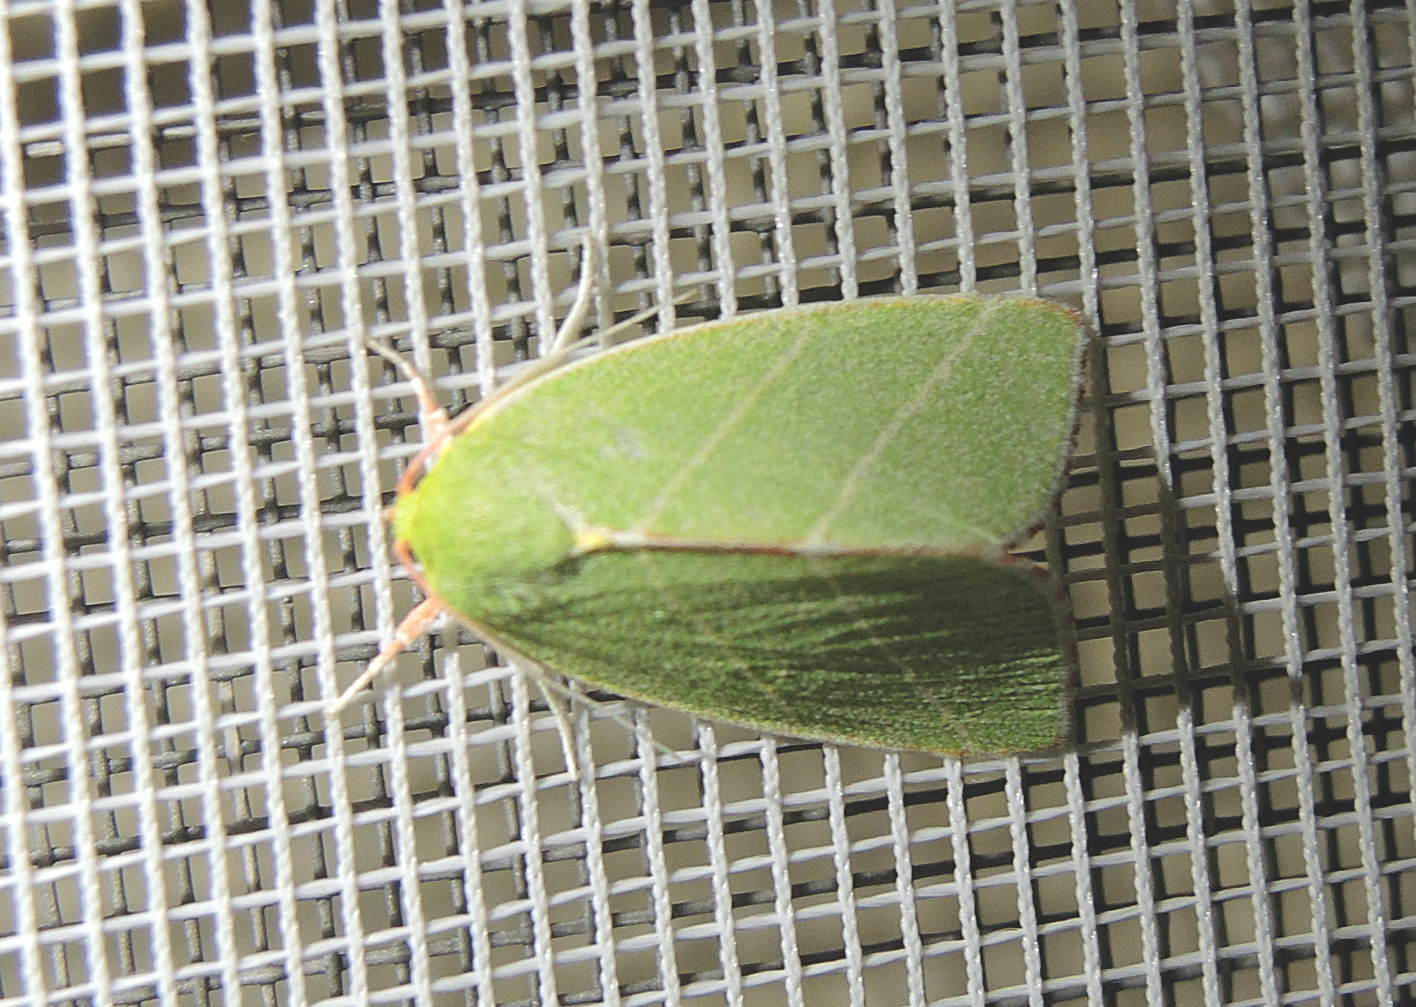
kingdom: Animalia
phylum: Arthropoda
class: Insecta
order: Lepidoptera
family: Nolidae
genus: Bena
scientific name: Bena bicolorana
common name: Scarce silver-lines
